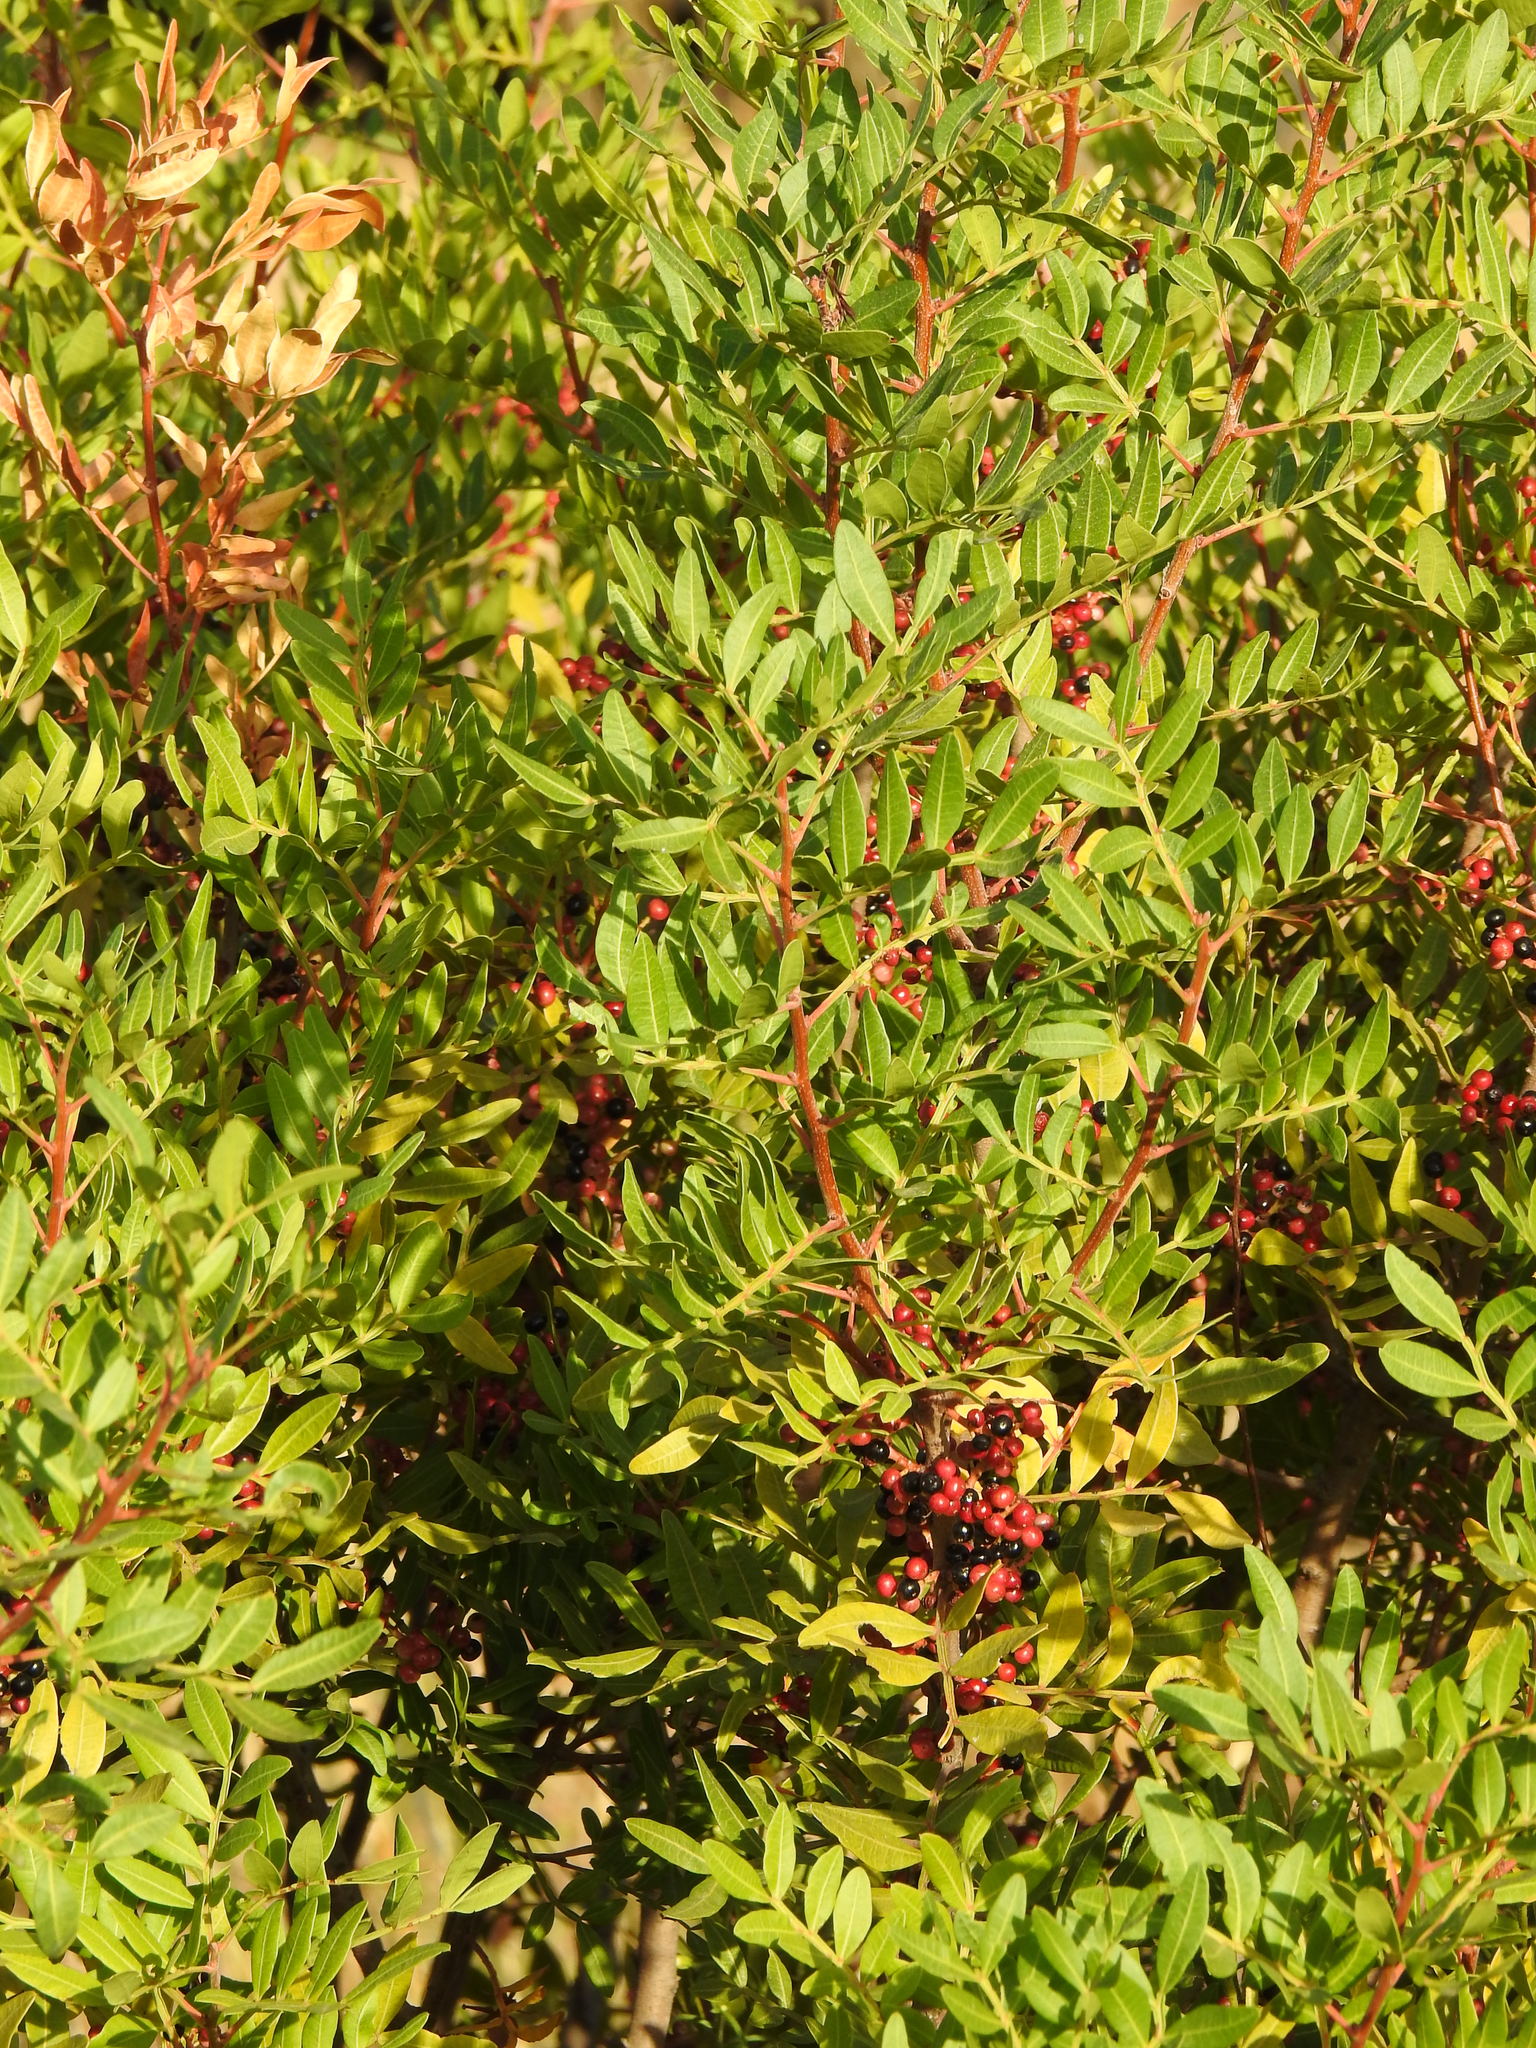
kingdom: Plantae
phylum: Tracheophyta
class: Magnoliopsida
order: Sapindales
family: Anacardiaceae
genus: Pistacia
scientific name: Pistacia lentiscus
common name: Lentisk
